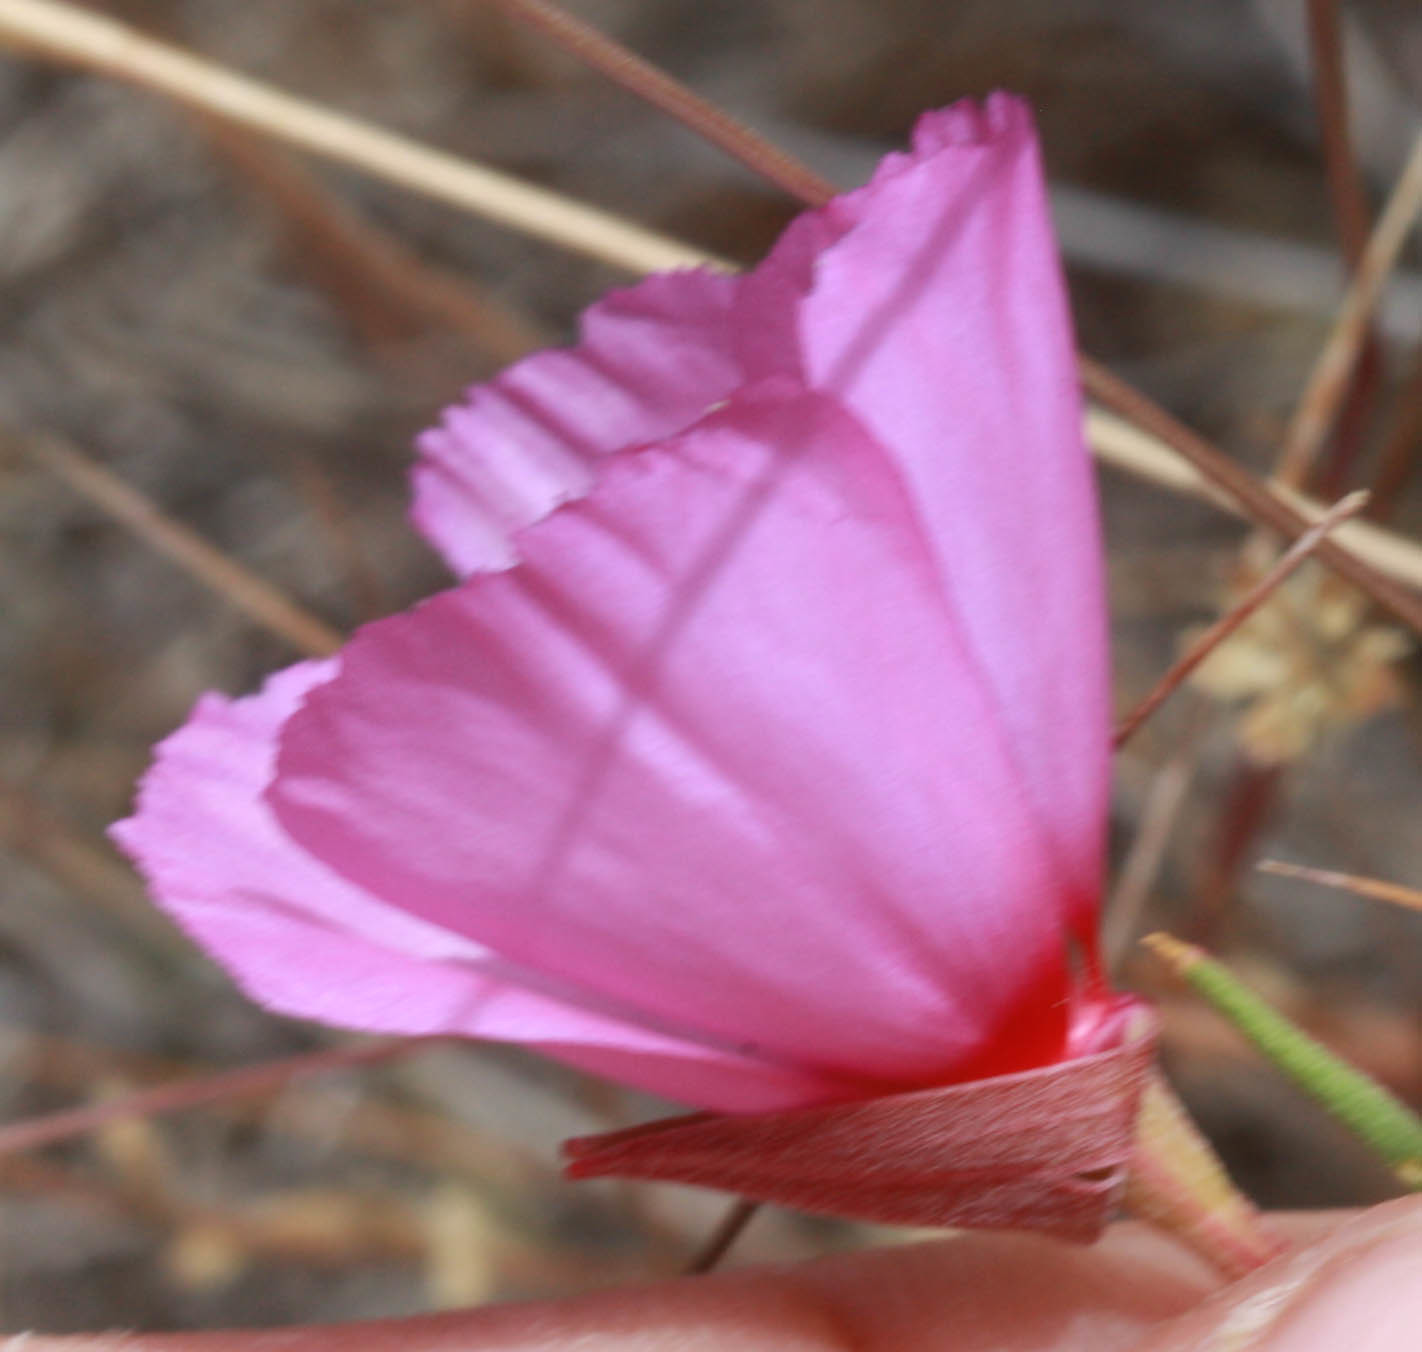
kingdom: Plantae
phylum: Tracheophyta
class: Magnoliopsida
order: Myrtales
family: Onagraceae
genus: Clarkia
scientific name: Clarkia rubicunda
